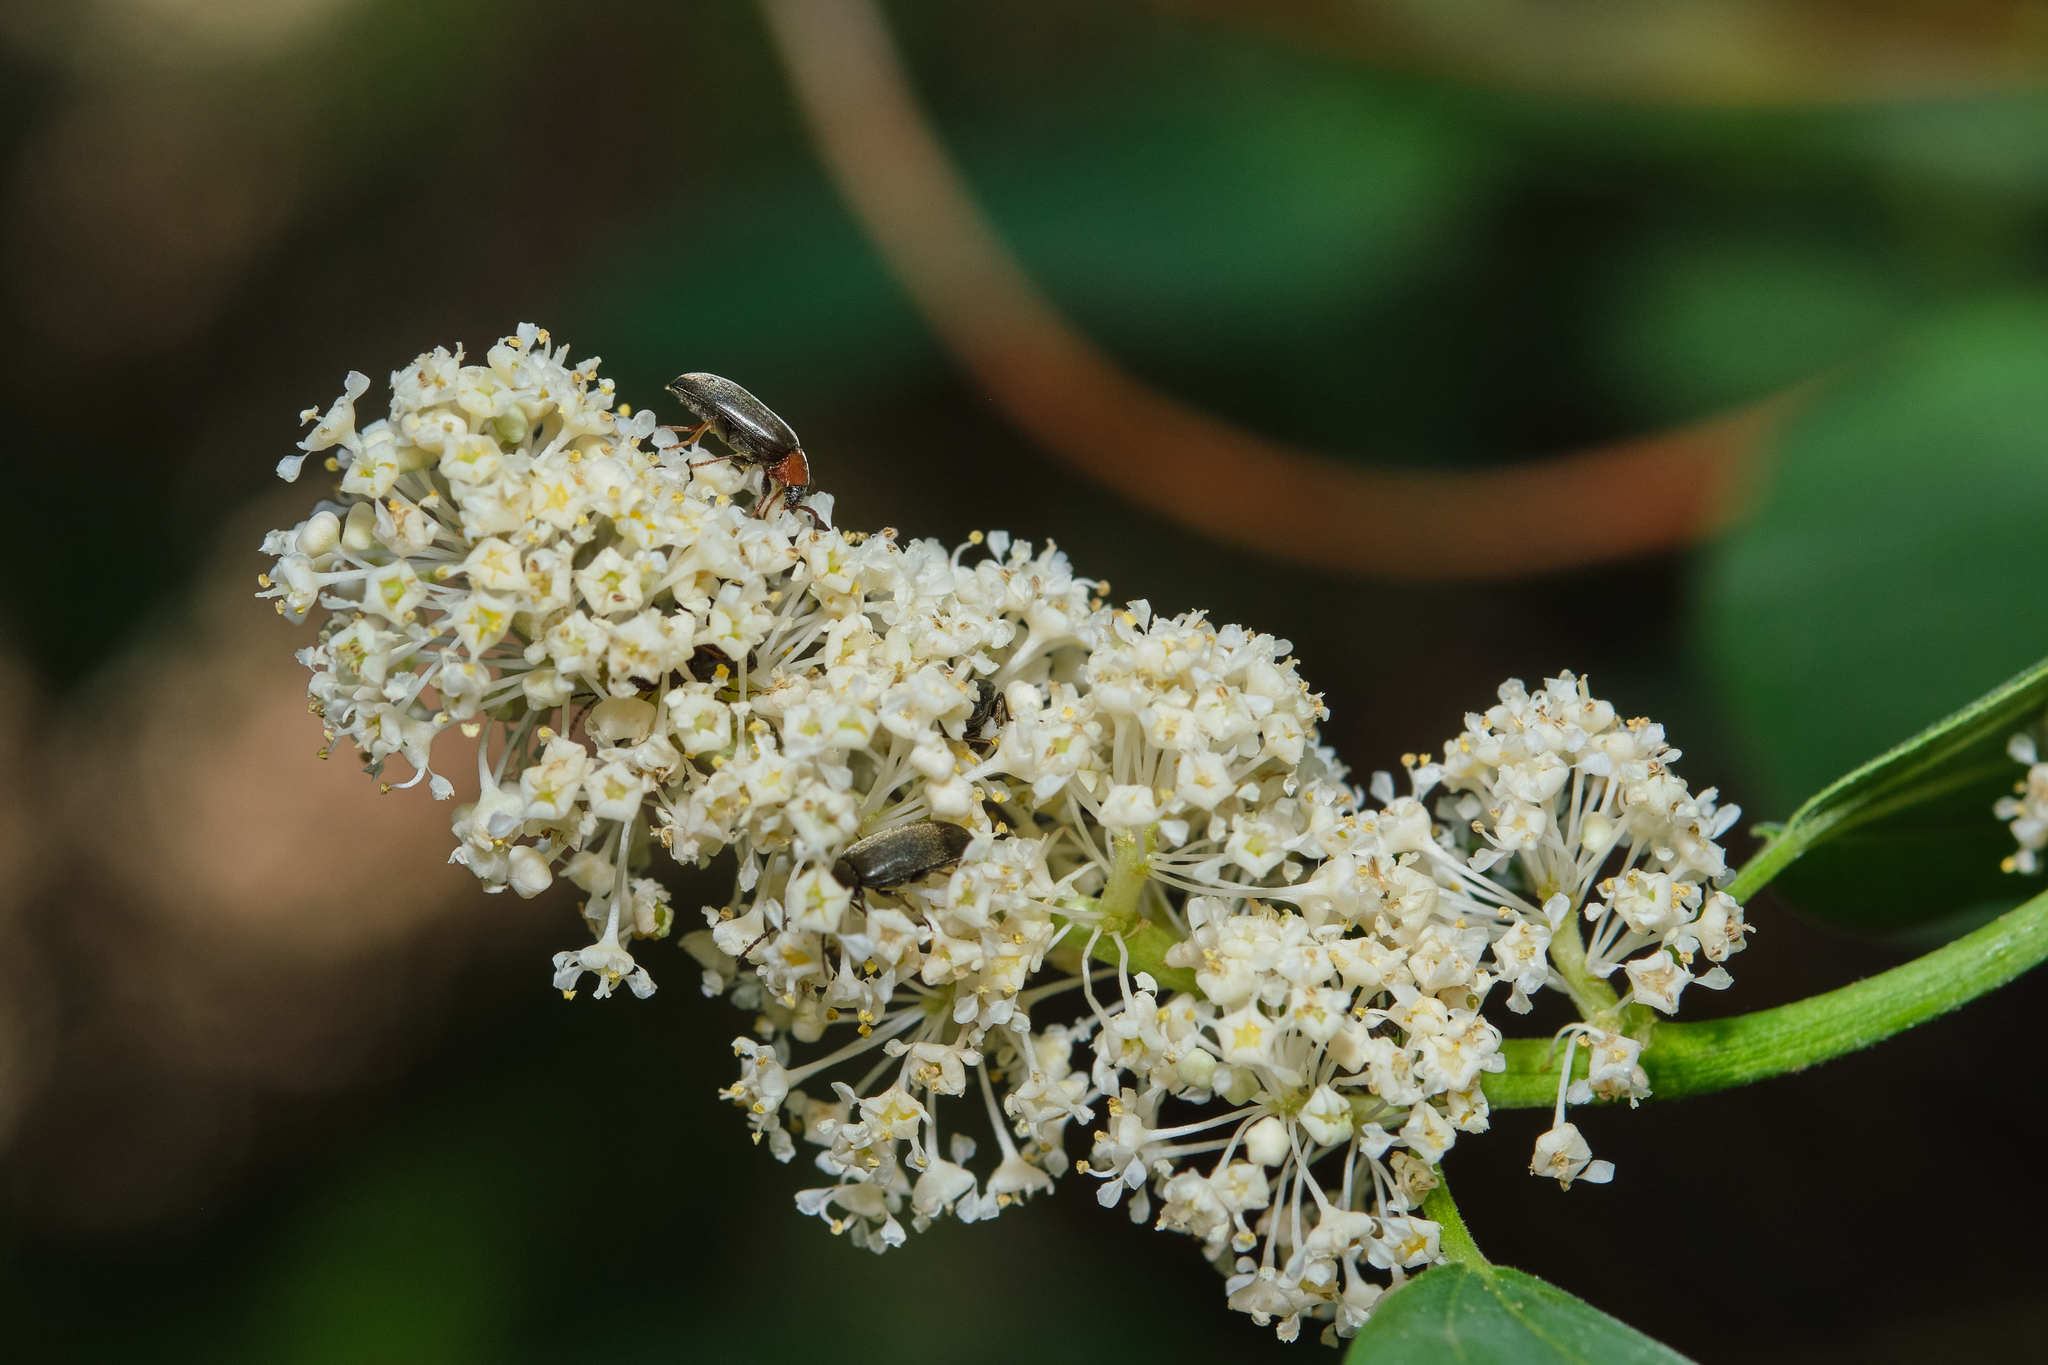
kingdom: Plantae
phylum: Tracheophyta
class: Magnoliopsida
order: Rosales
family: Rhamnaceae
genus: Ceanothus
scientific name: Ceanothus integerrimus
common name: Deerbrush ceanothus
